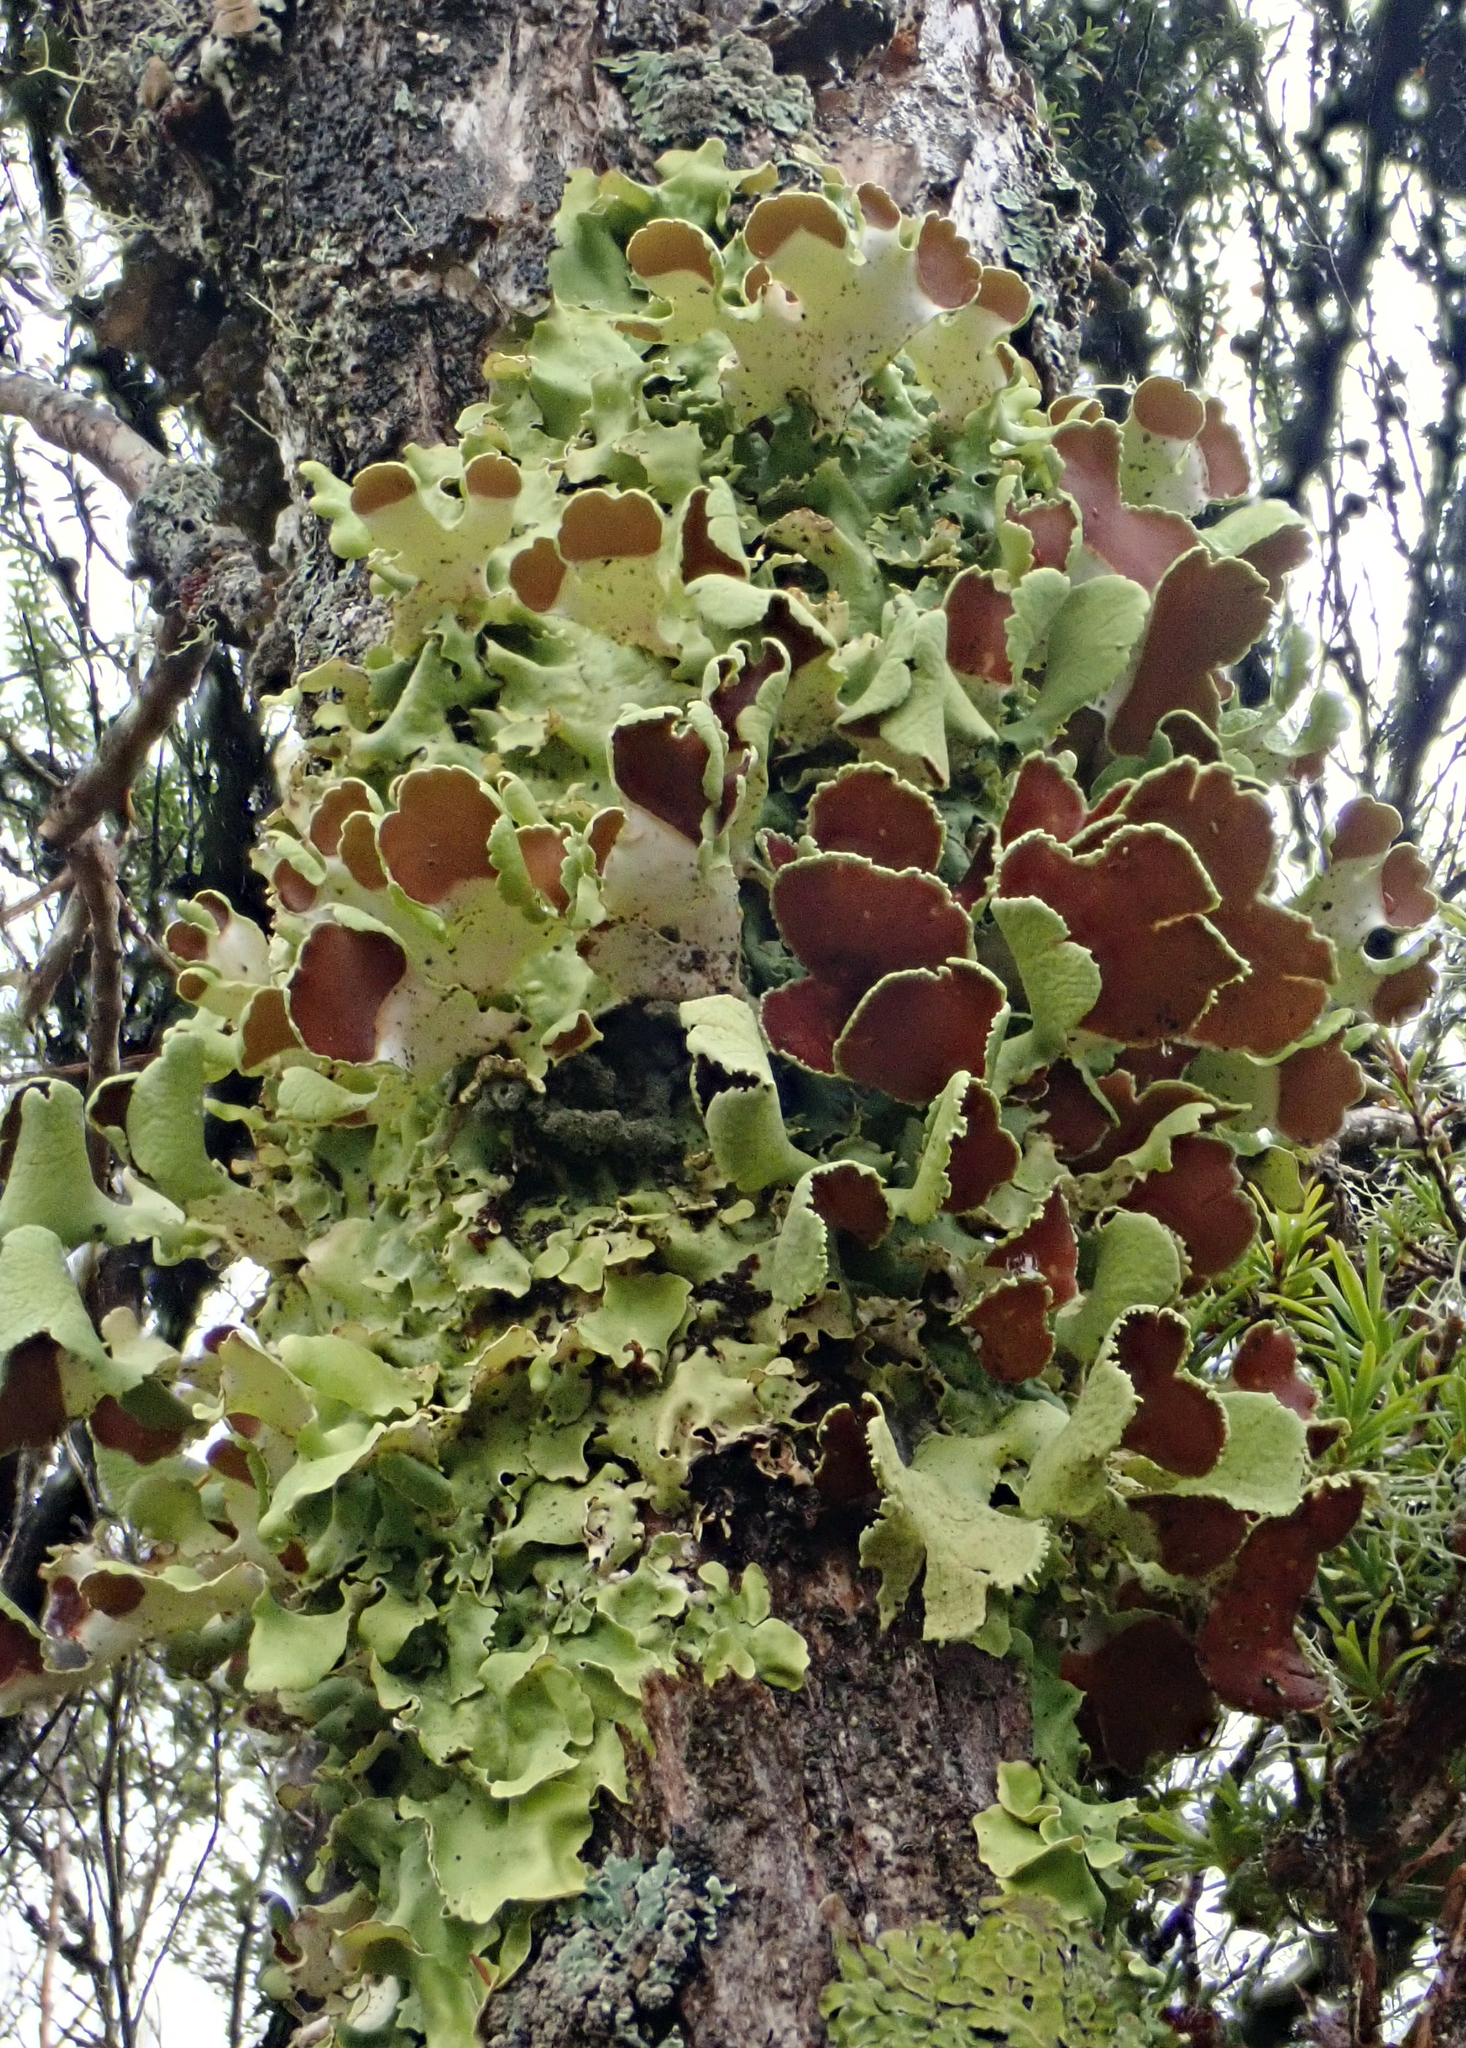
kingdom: Fungi
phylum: Ascomycota
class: Lecanoromycetes
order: Peltigerales
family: Nephromataceae
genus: Nephroma
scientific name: Nephroma australe
